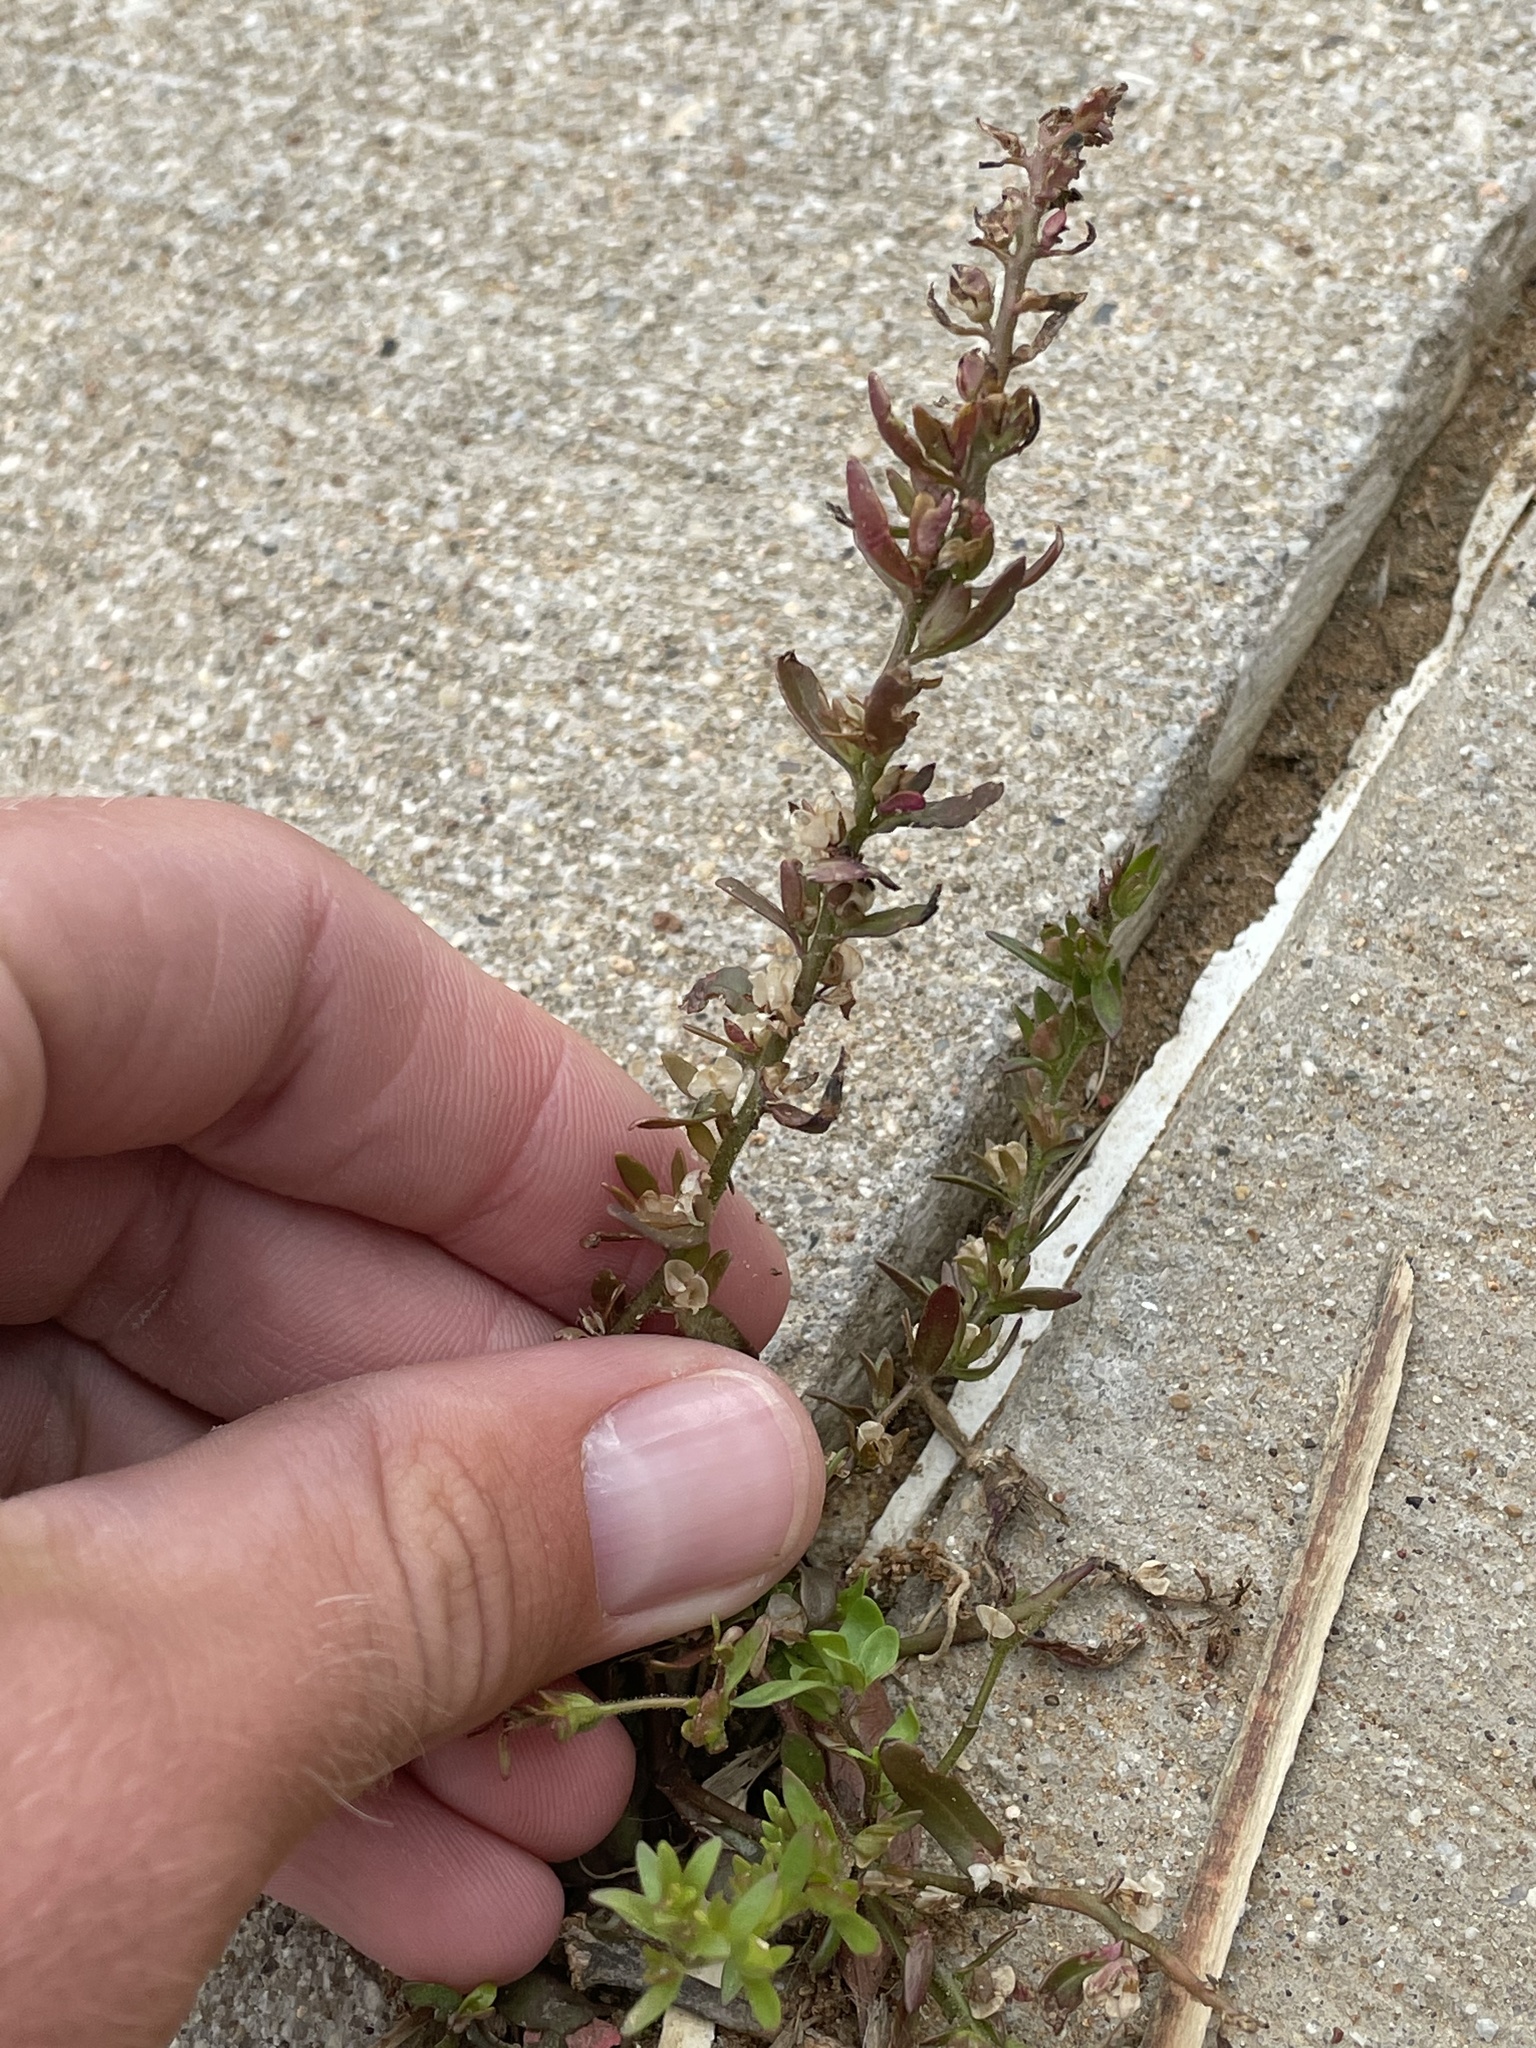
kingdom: Plantae
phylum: Tracheophyta
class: Magnoliopsida
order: Lamiales
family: Plantaginaceae
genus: Veronica
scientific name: Veronica peregrina
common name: Neckweed
